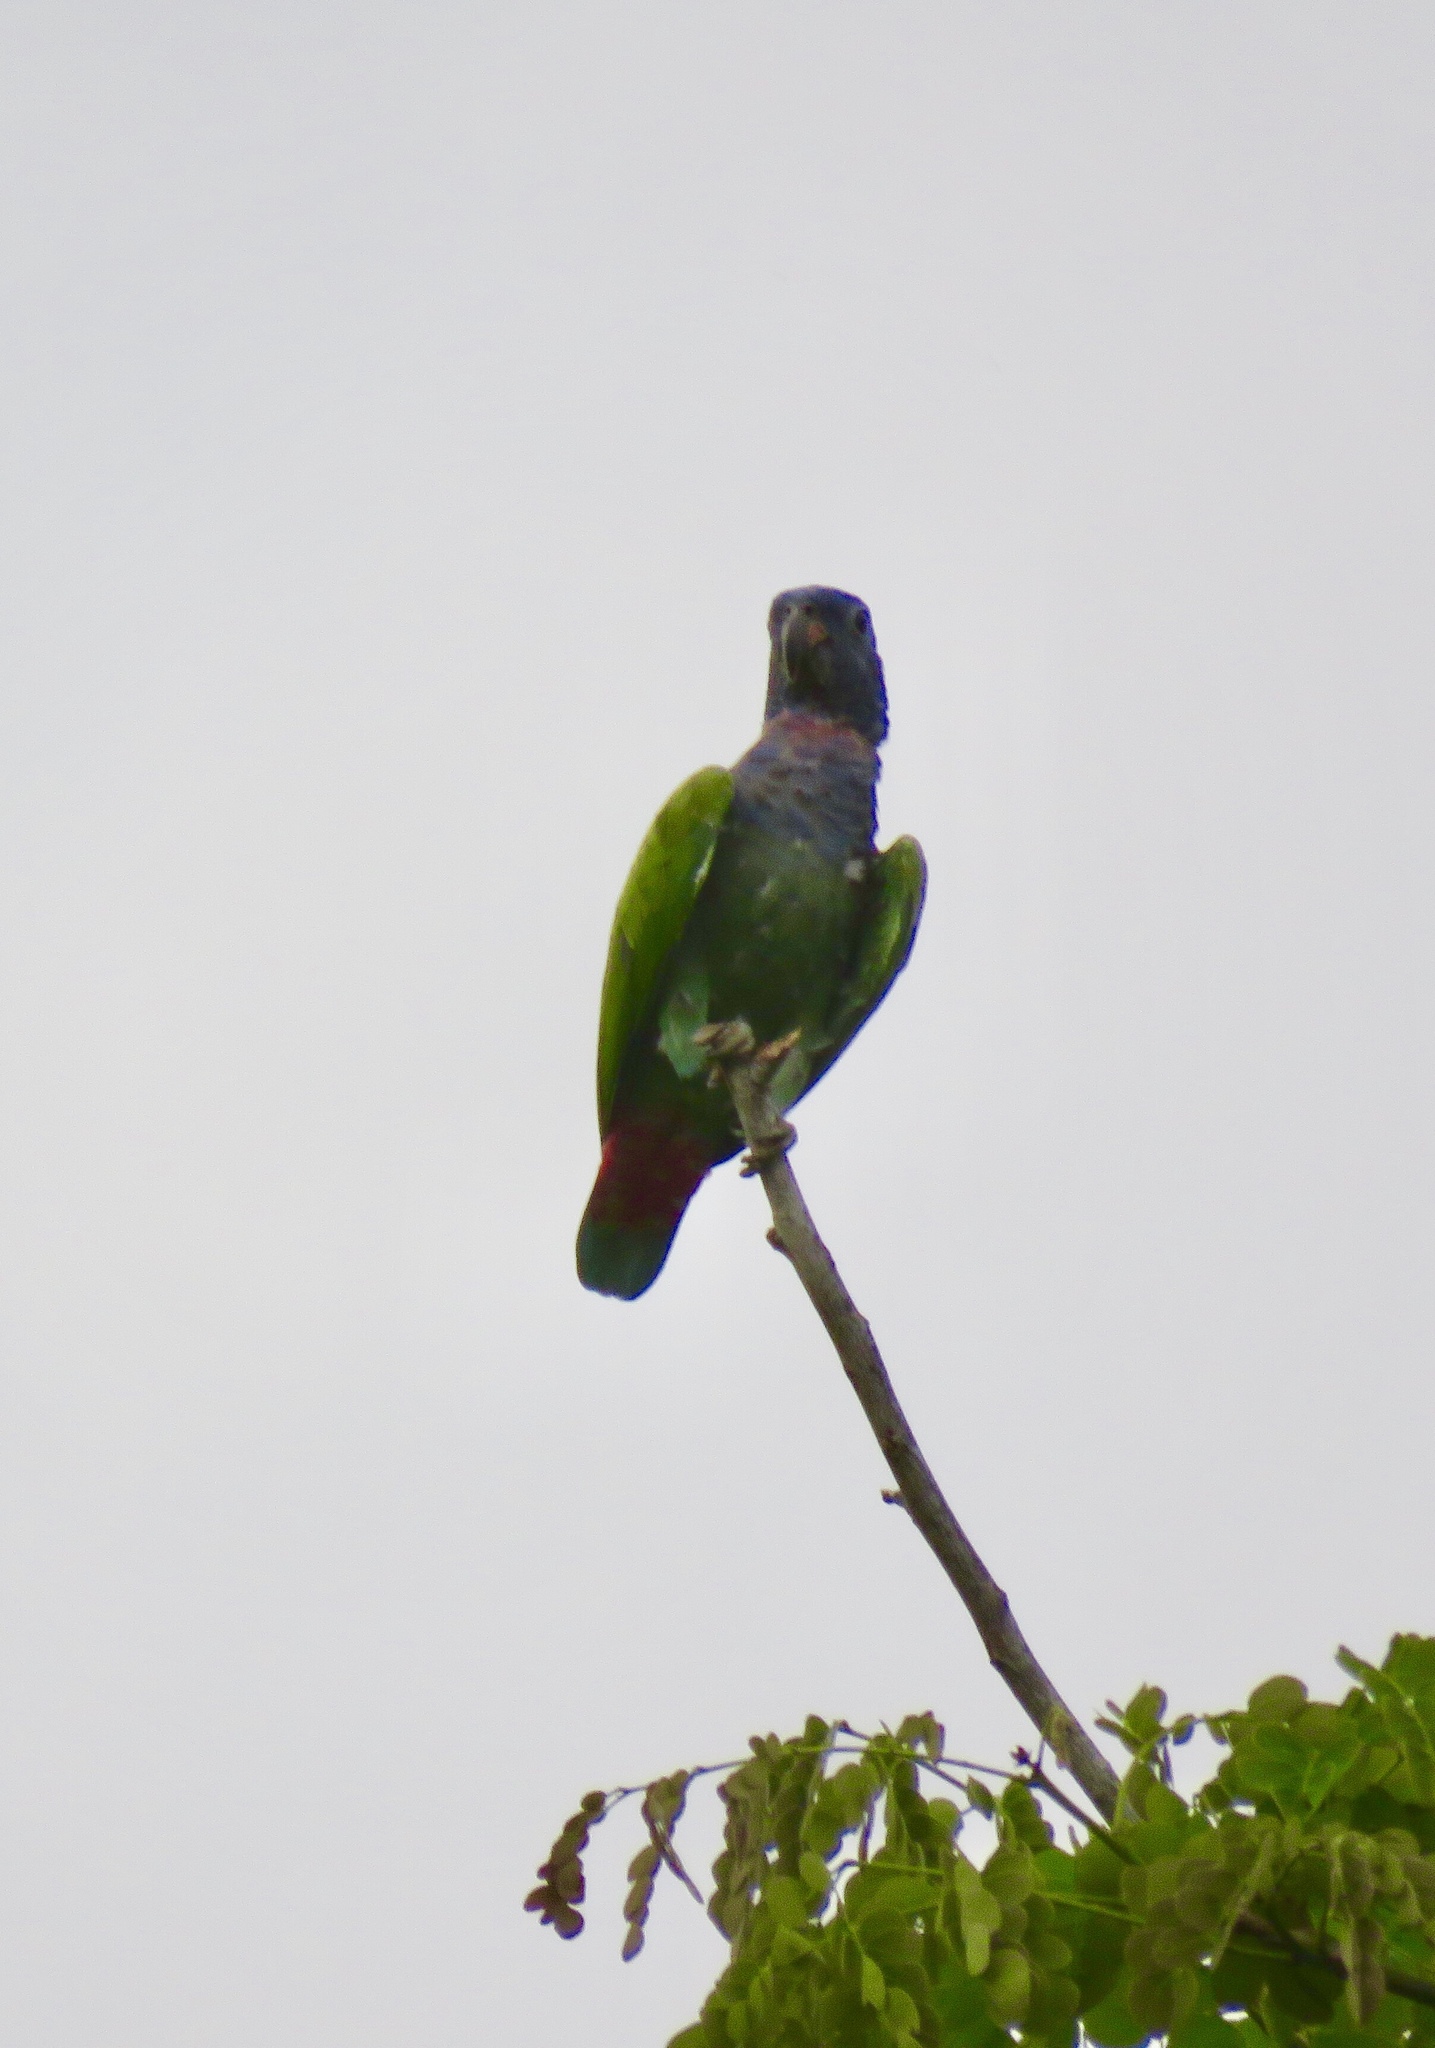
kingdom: Animalia
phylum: Chordata
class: Aves
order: Psittaciformes
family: Psittacidae
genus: Pionus
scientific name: Pionus menstruus
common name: Blue-headed parrot
